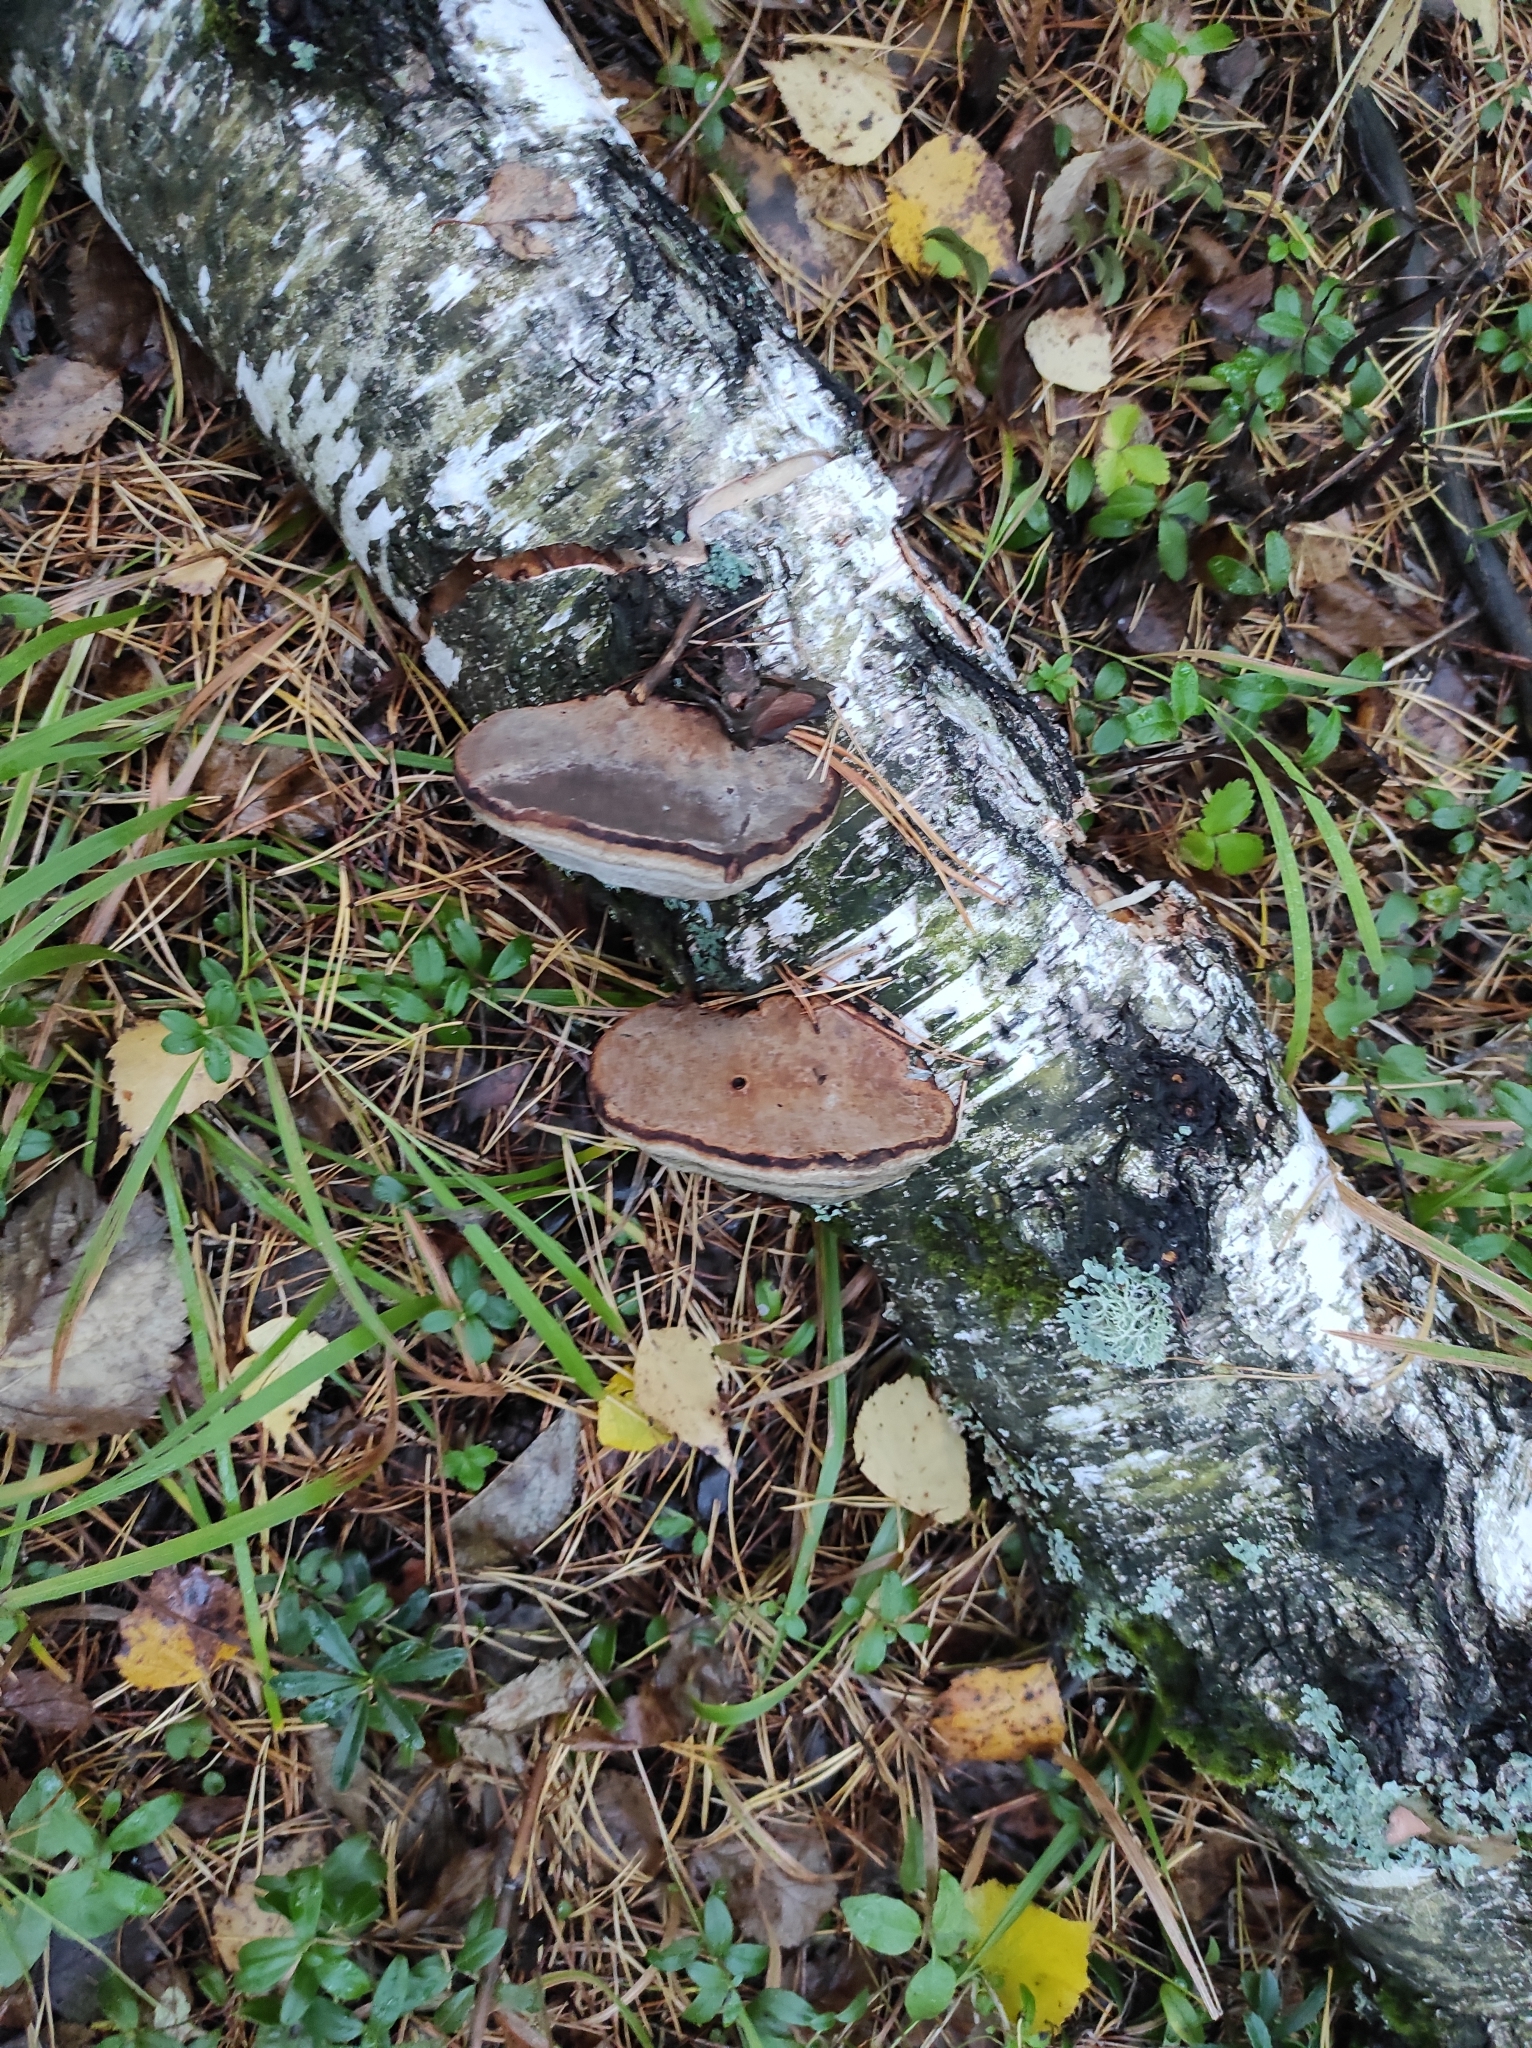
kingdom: Fungi
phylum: Basidiomycota
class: Agaricomycetes
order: Polyporales
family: Polyporaceae
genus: Fomes
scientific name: Fomes fomentarius
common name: Hoof fungus
